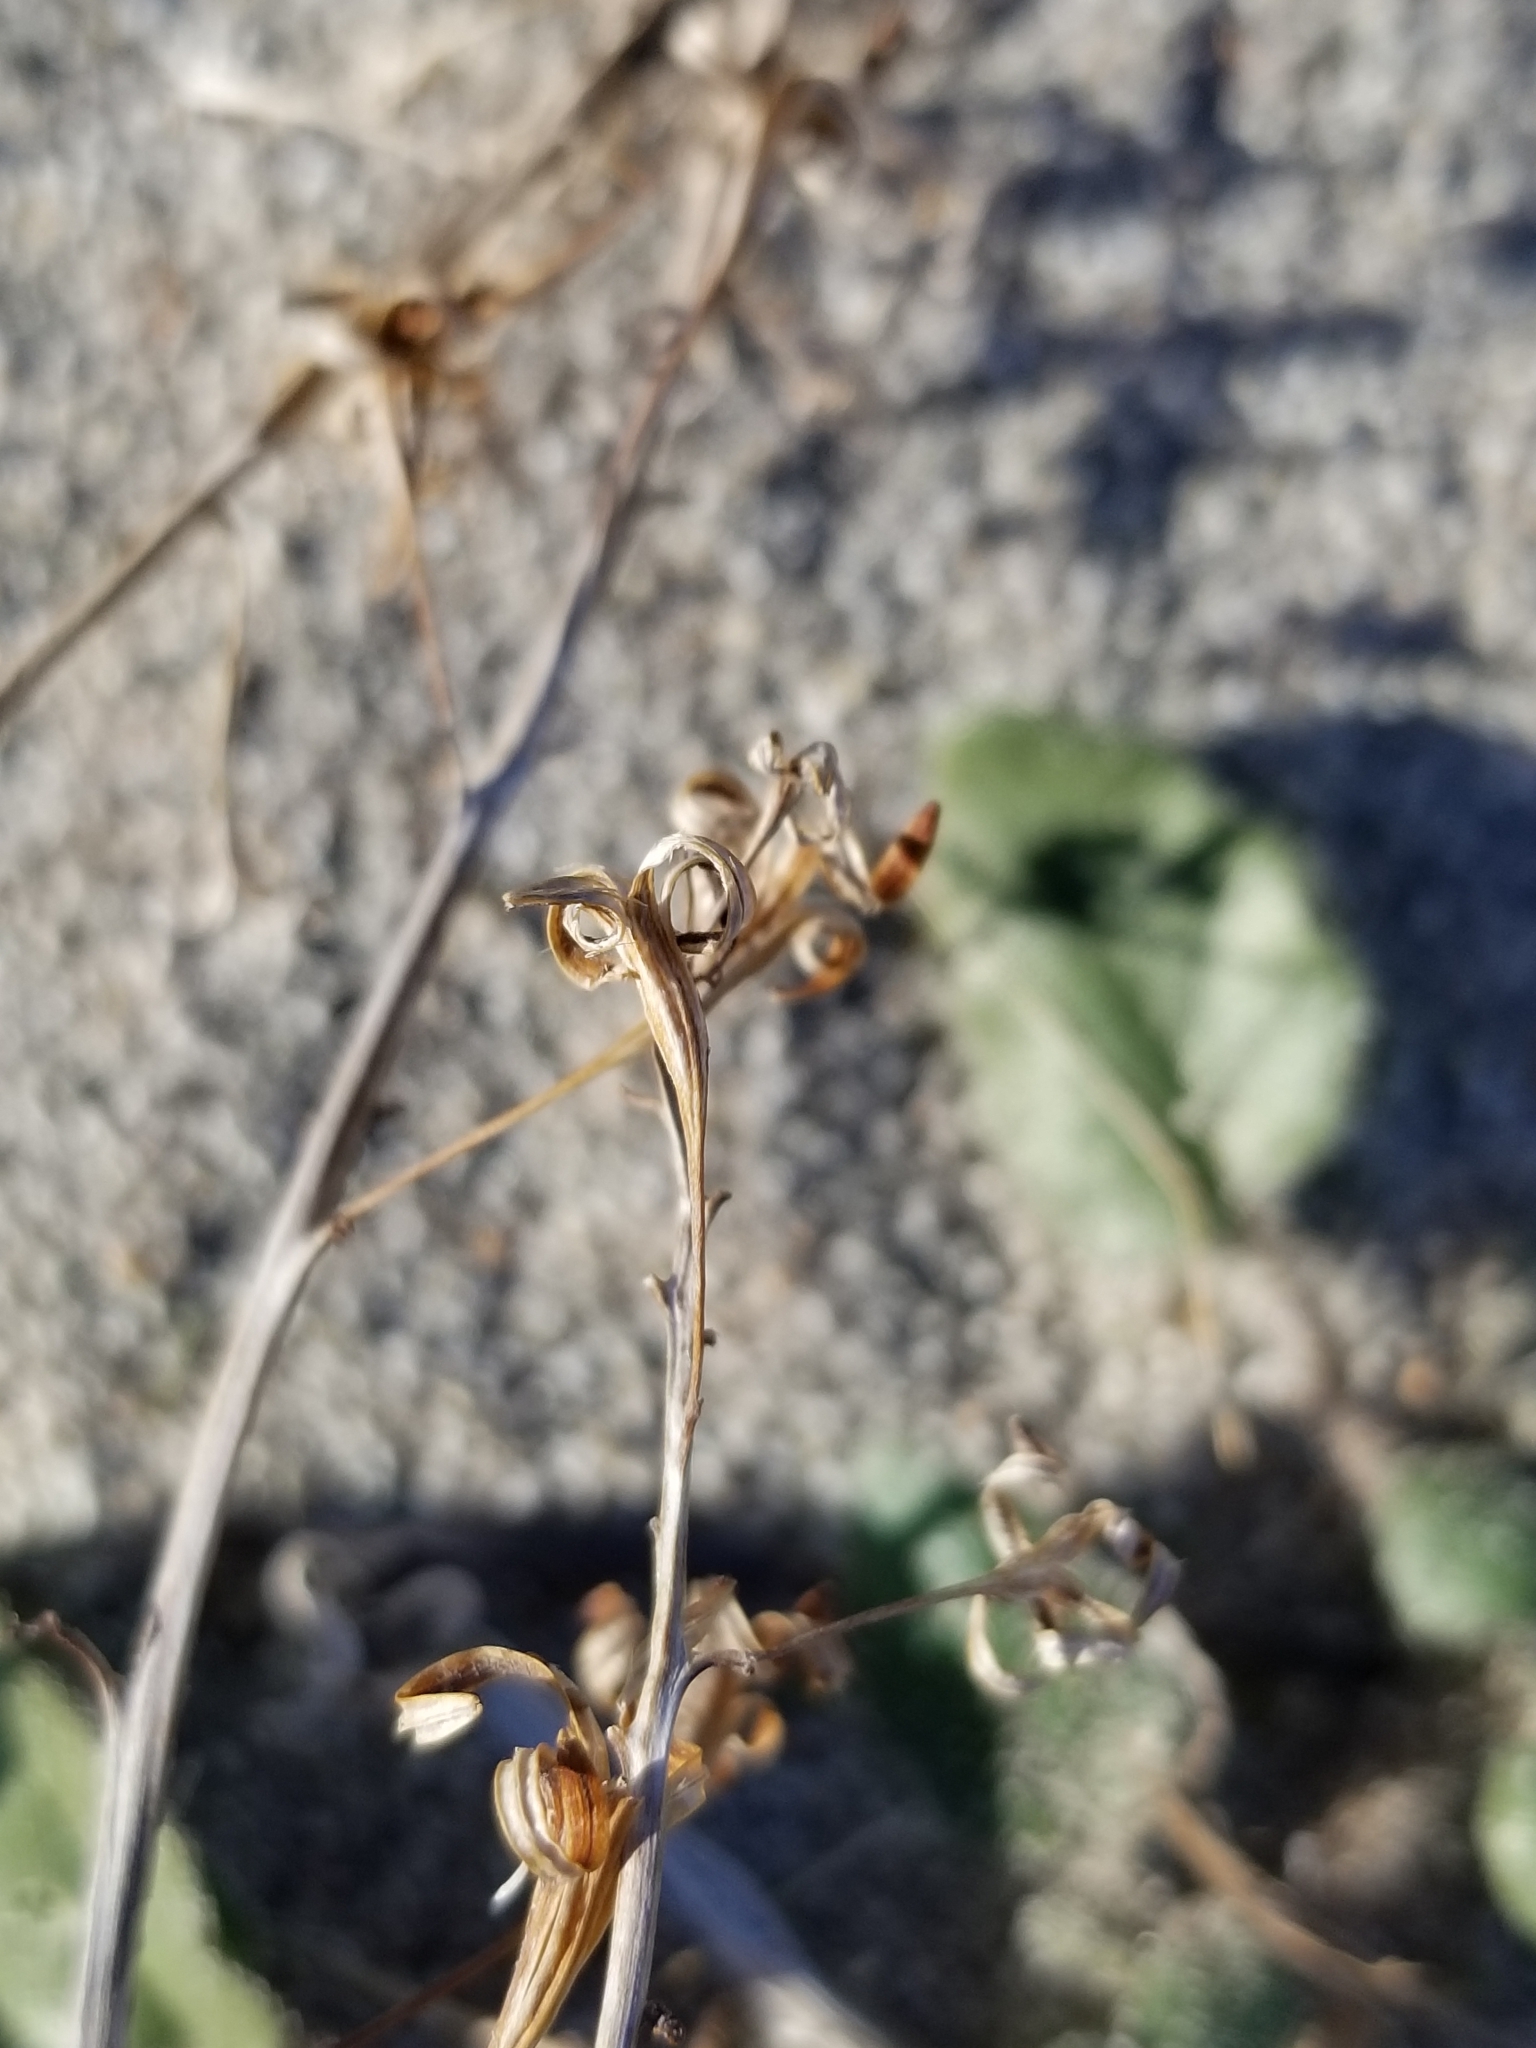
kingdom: Plantae
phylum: Tracheophyta
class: Magnoliopsida
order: Caryophyllales
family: Nyctaginaceae
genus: Abronia
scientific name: Abronia villosa
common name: Desert sand-verbena
